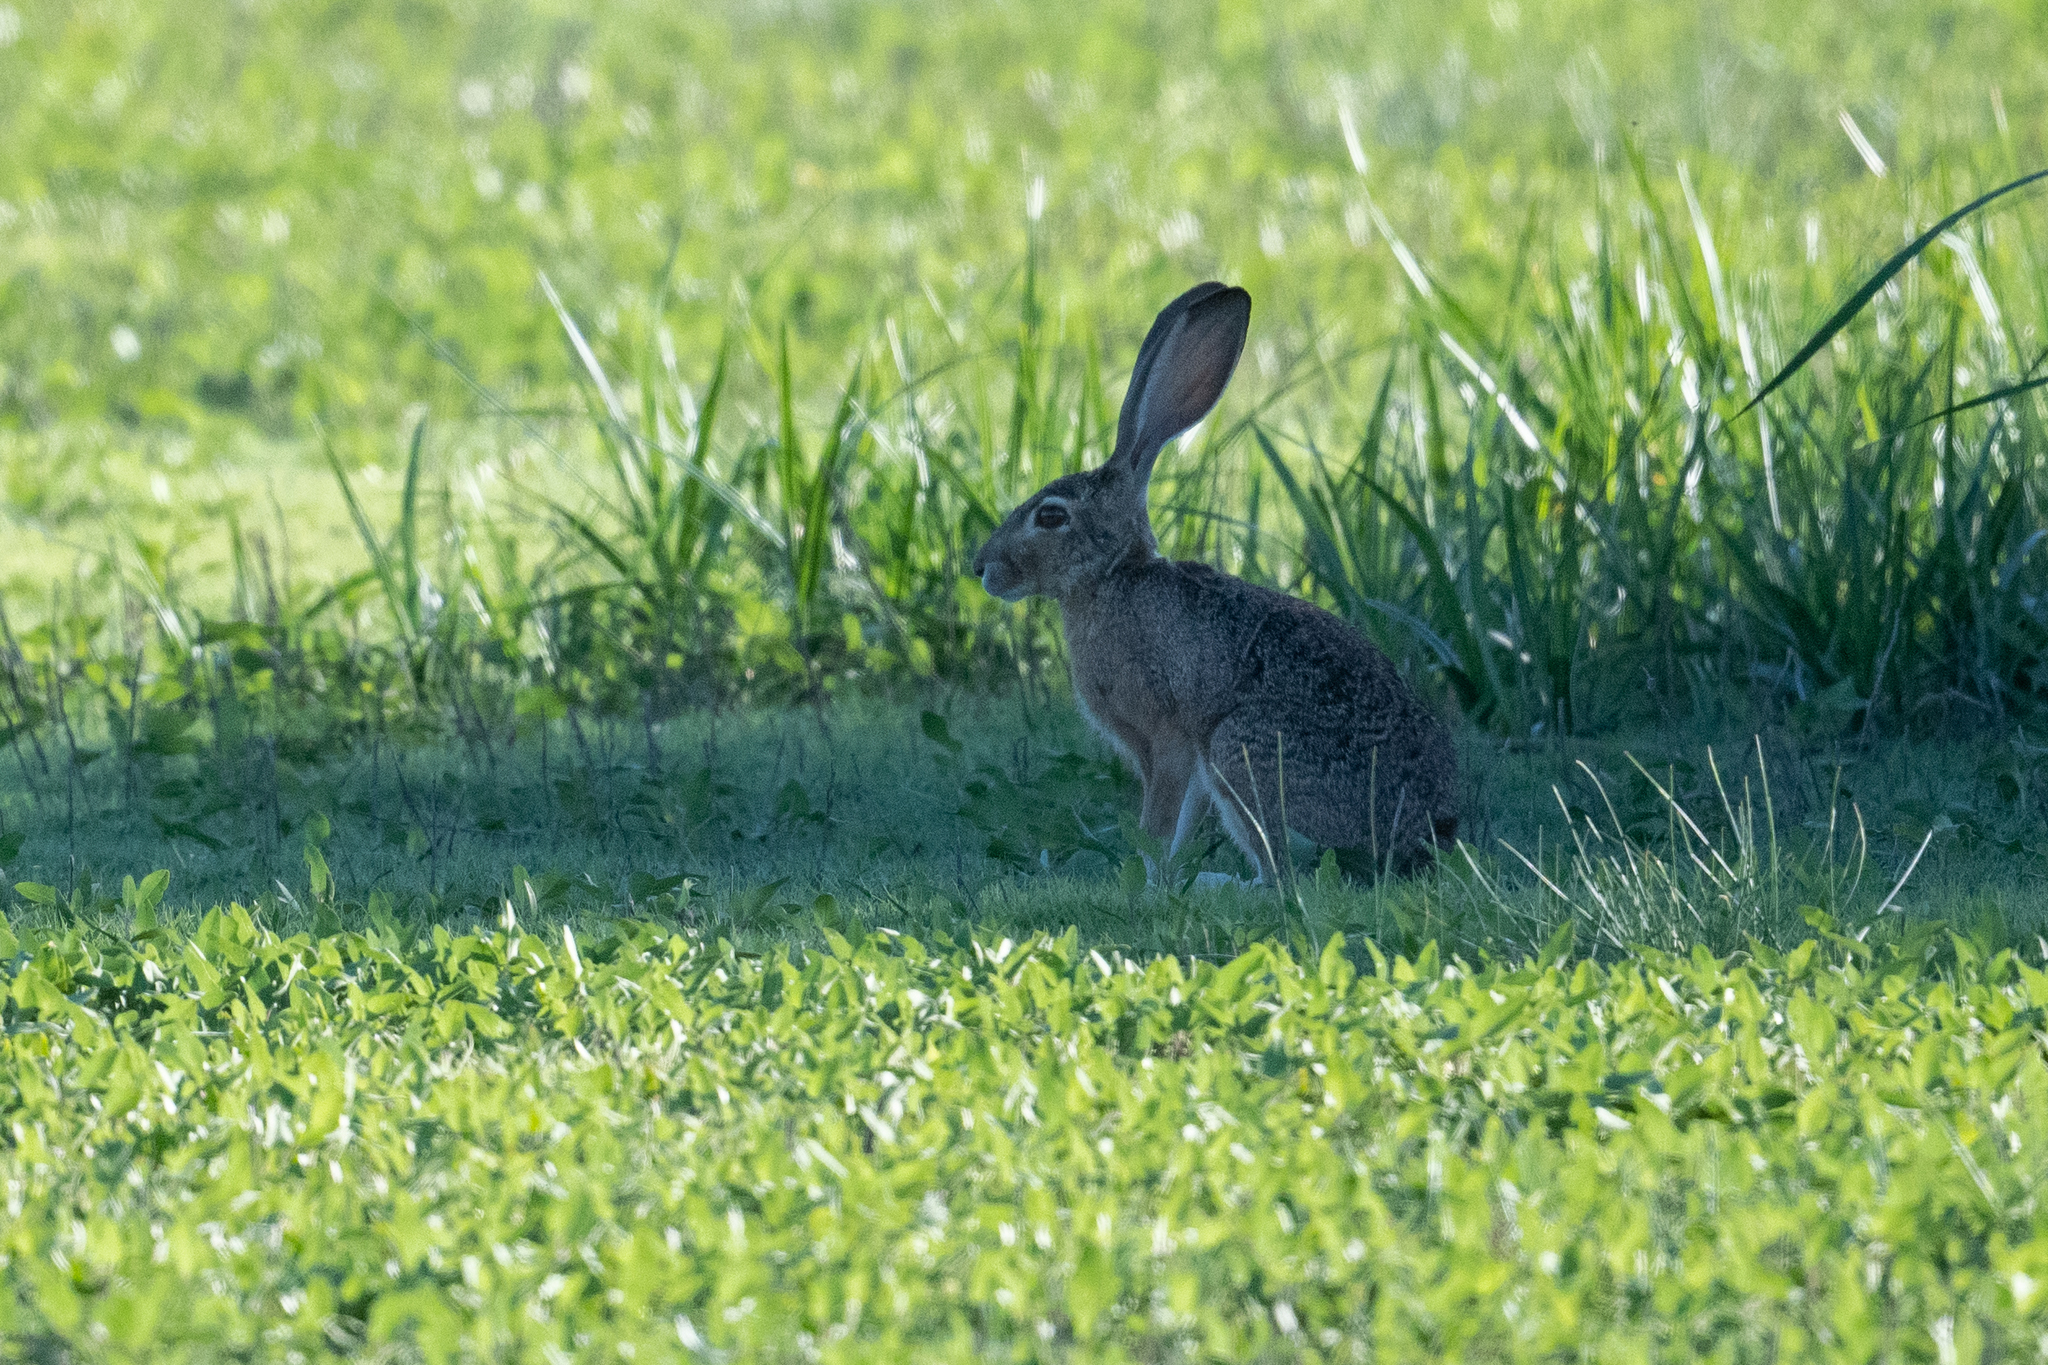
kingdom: Animalia
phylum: Chordata
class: Mammalia
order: Lagomorpha
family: Leporidae
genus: Lepus
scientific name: Lepus californicus
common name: Black-tailed jackrabbit
